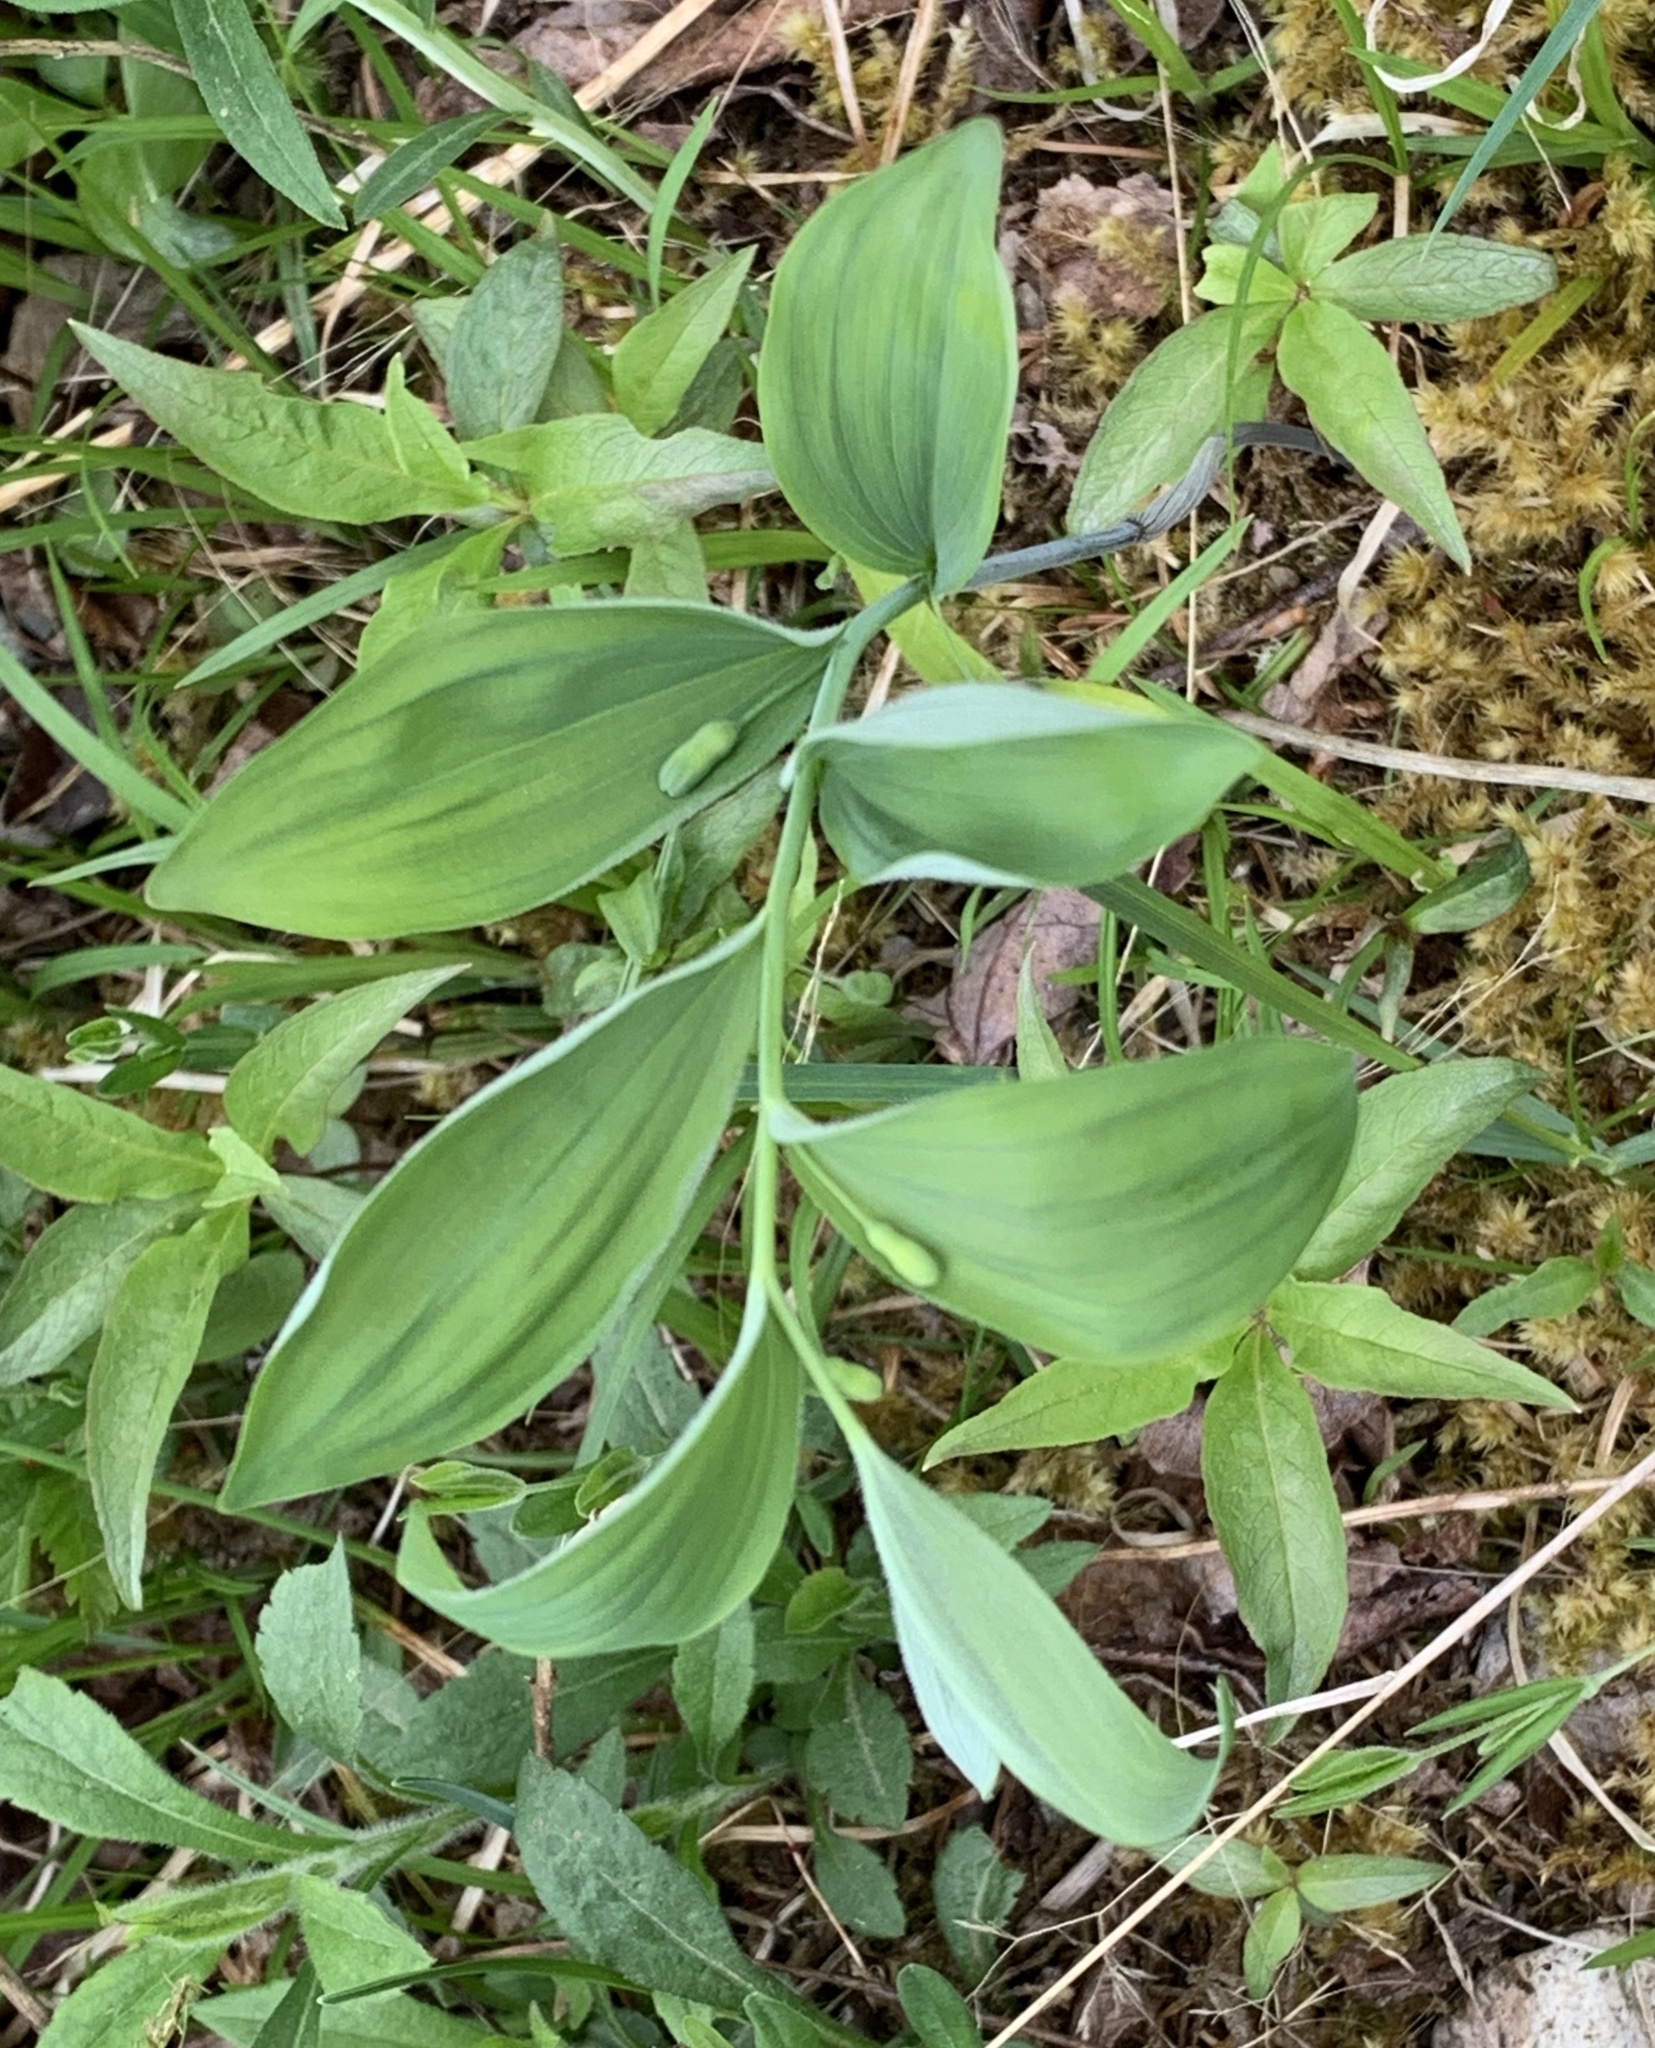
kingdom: Plantae
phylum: Tracheophyta
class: Liliopsida
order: Asparagales
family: Asparagaceae
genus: Polygonatum
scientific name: Polygonatum pubescens
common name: Downy solomon's seal
